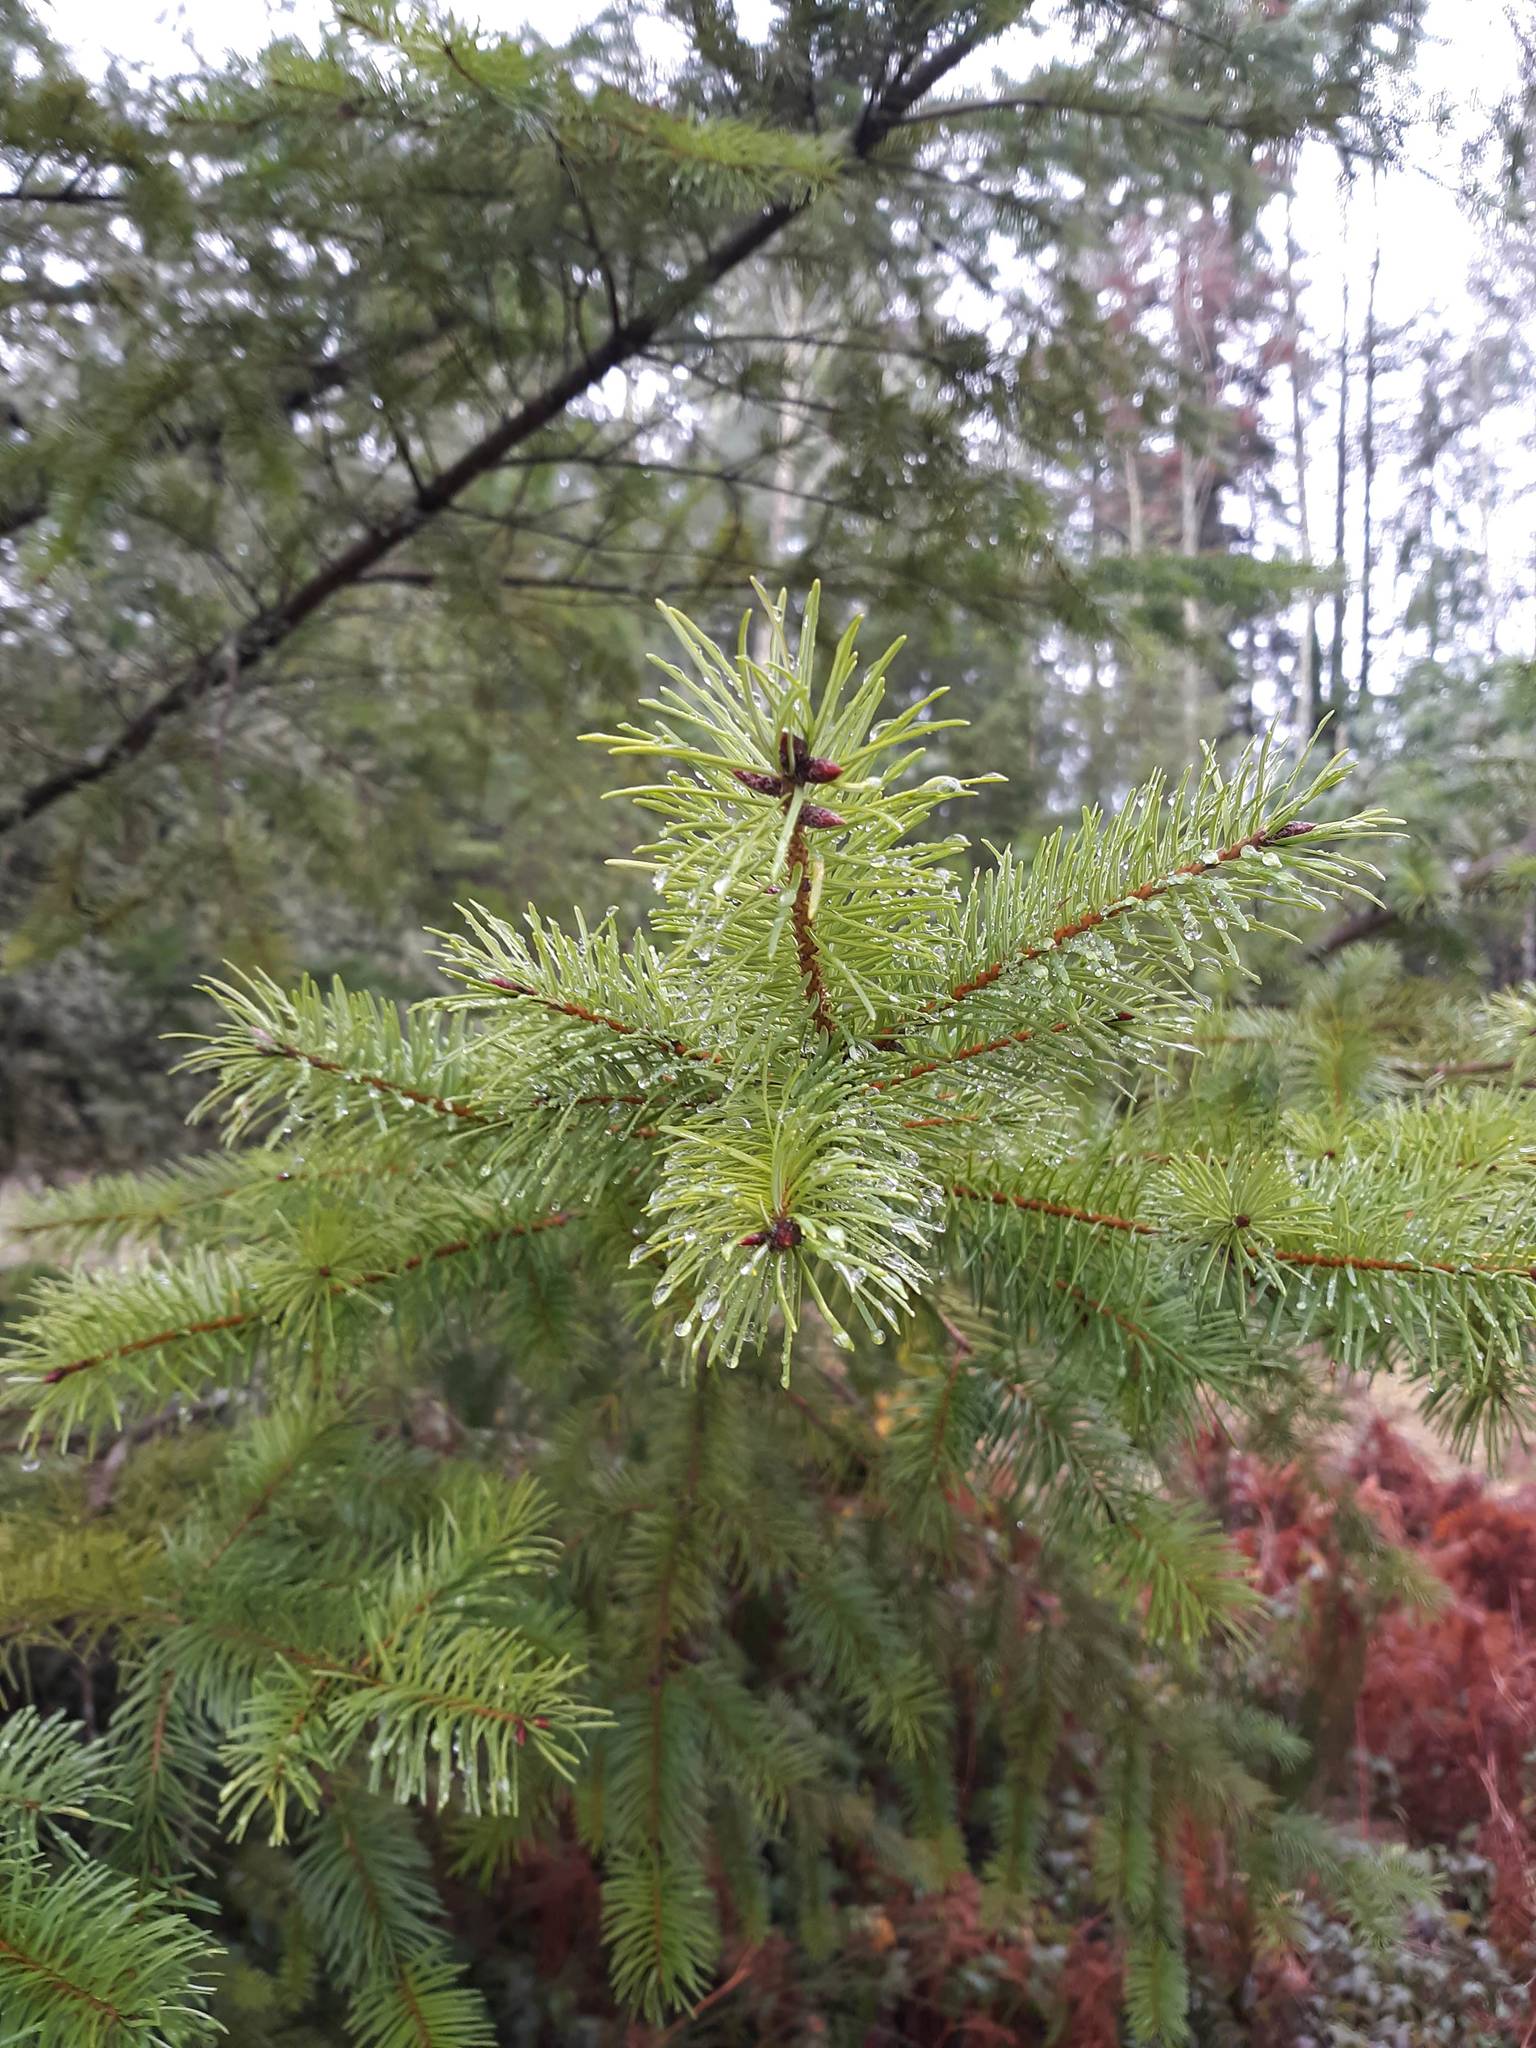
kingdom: Plantae
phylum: Tracheophyta
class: Pinopsida
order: Pinales
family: Pinaceae
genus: Pseudotsuga
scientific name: Pseudotsuga menziesii
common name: Douglas fir
